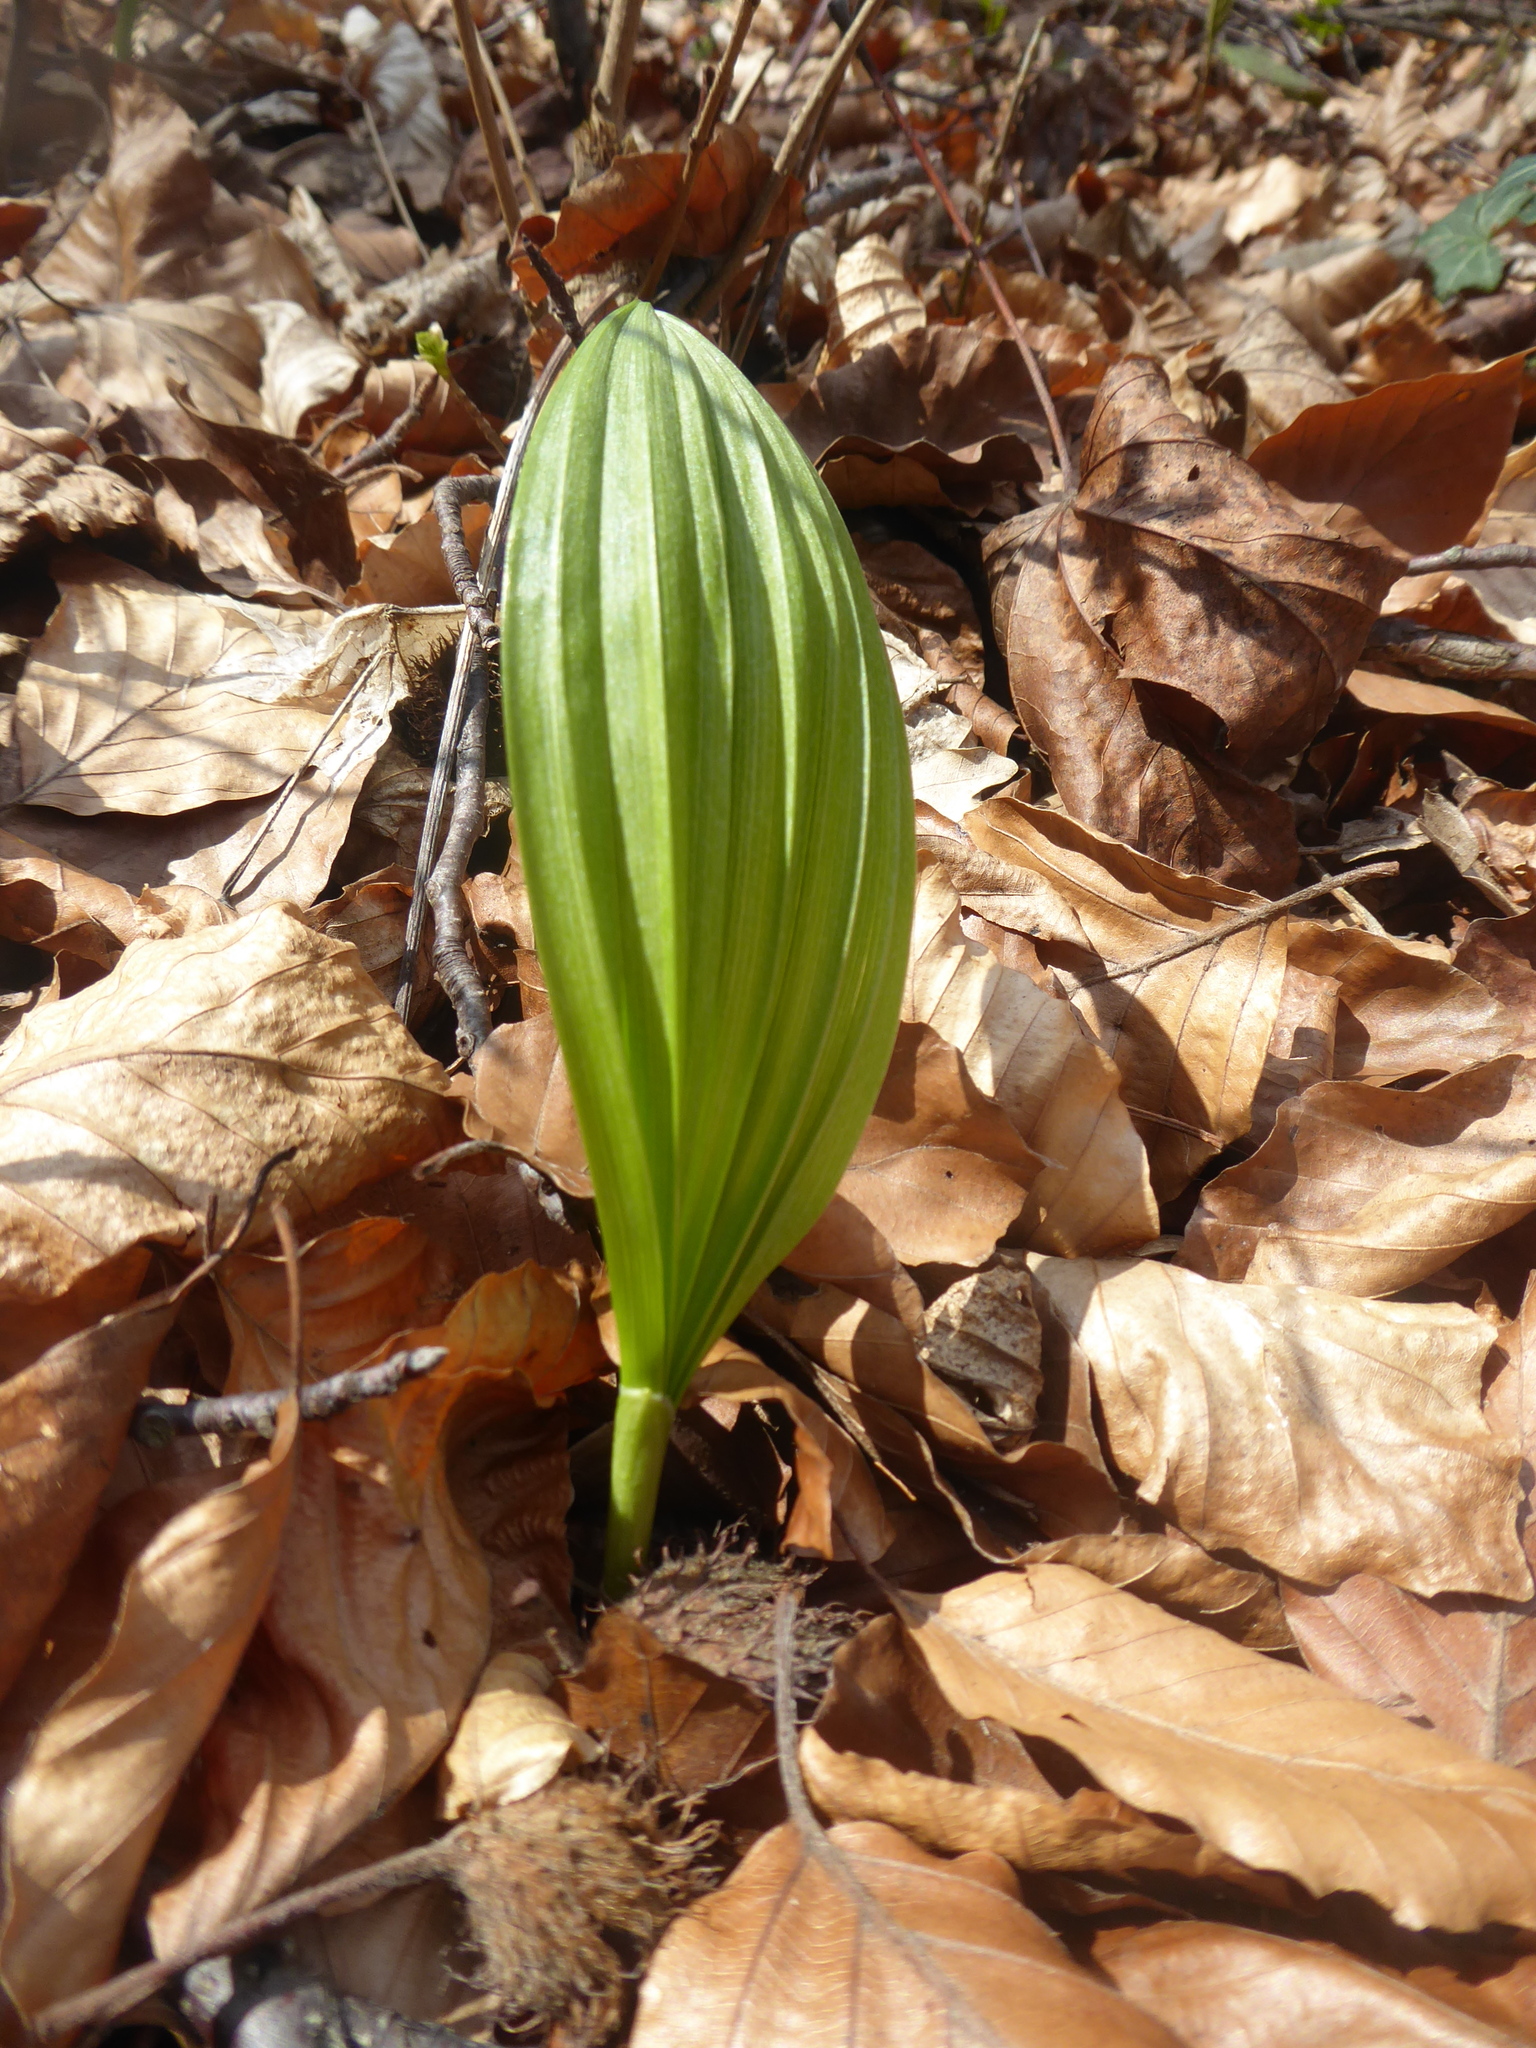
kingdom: Plantae
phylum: Tracheophyta
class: Liliopsida
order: Liliales
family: Melanthiaceae
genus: Veratrum
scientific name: Veratrum nigrum
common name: Black veratrum
